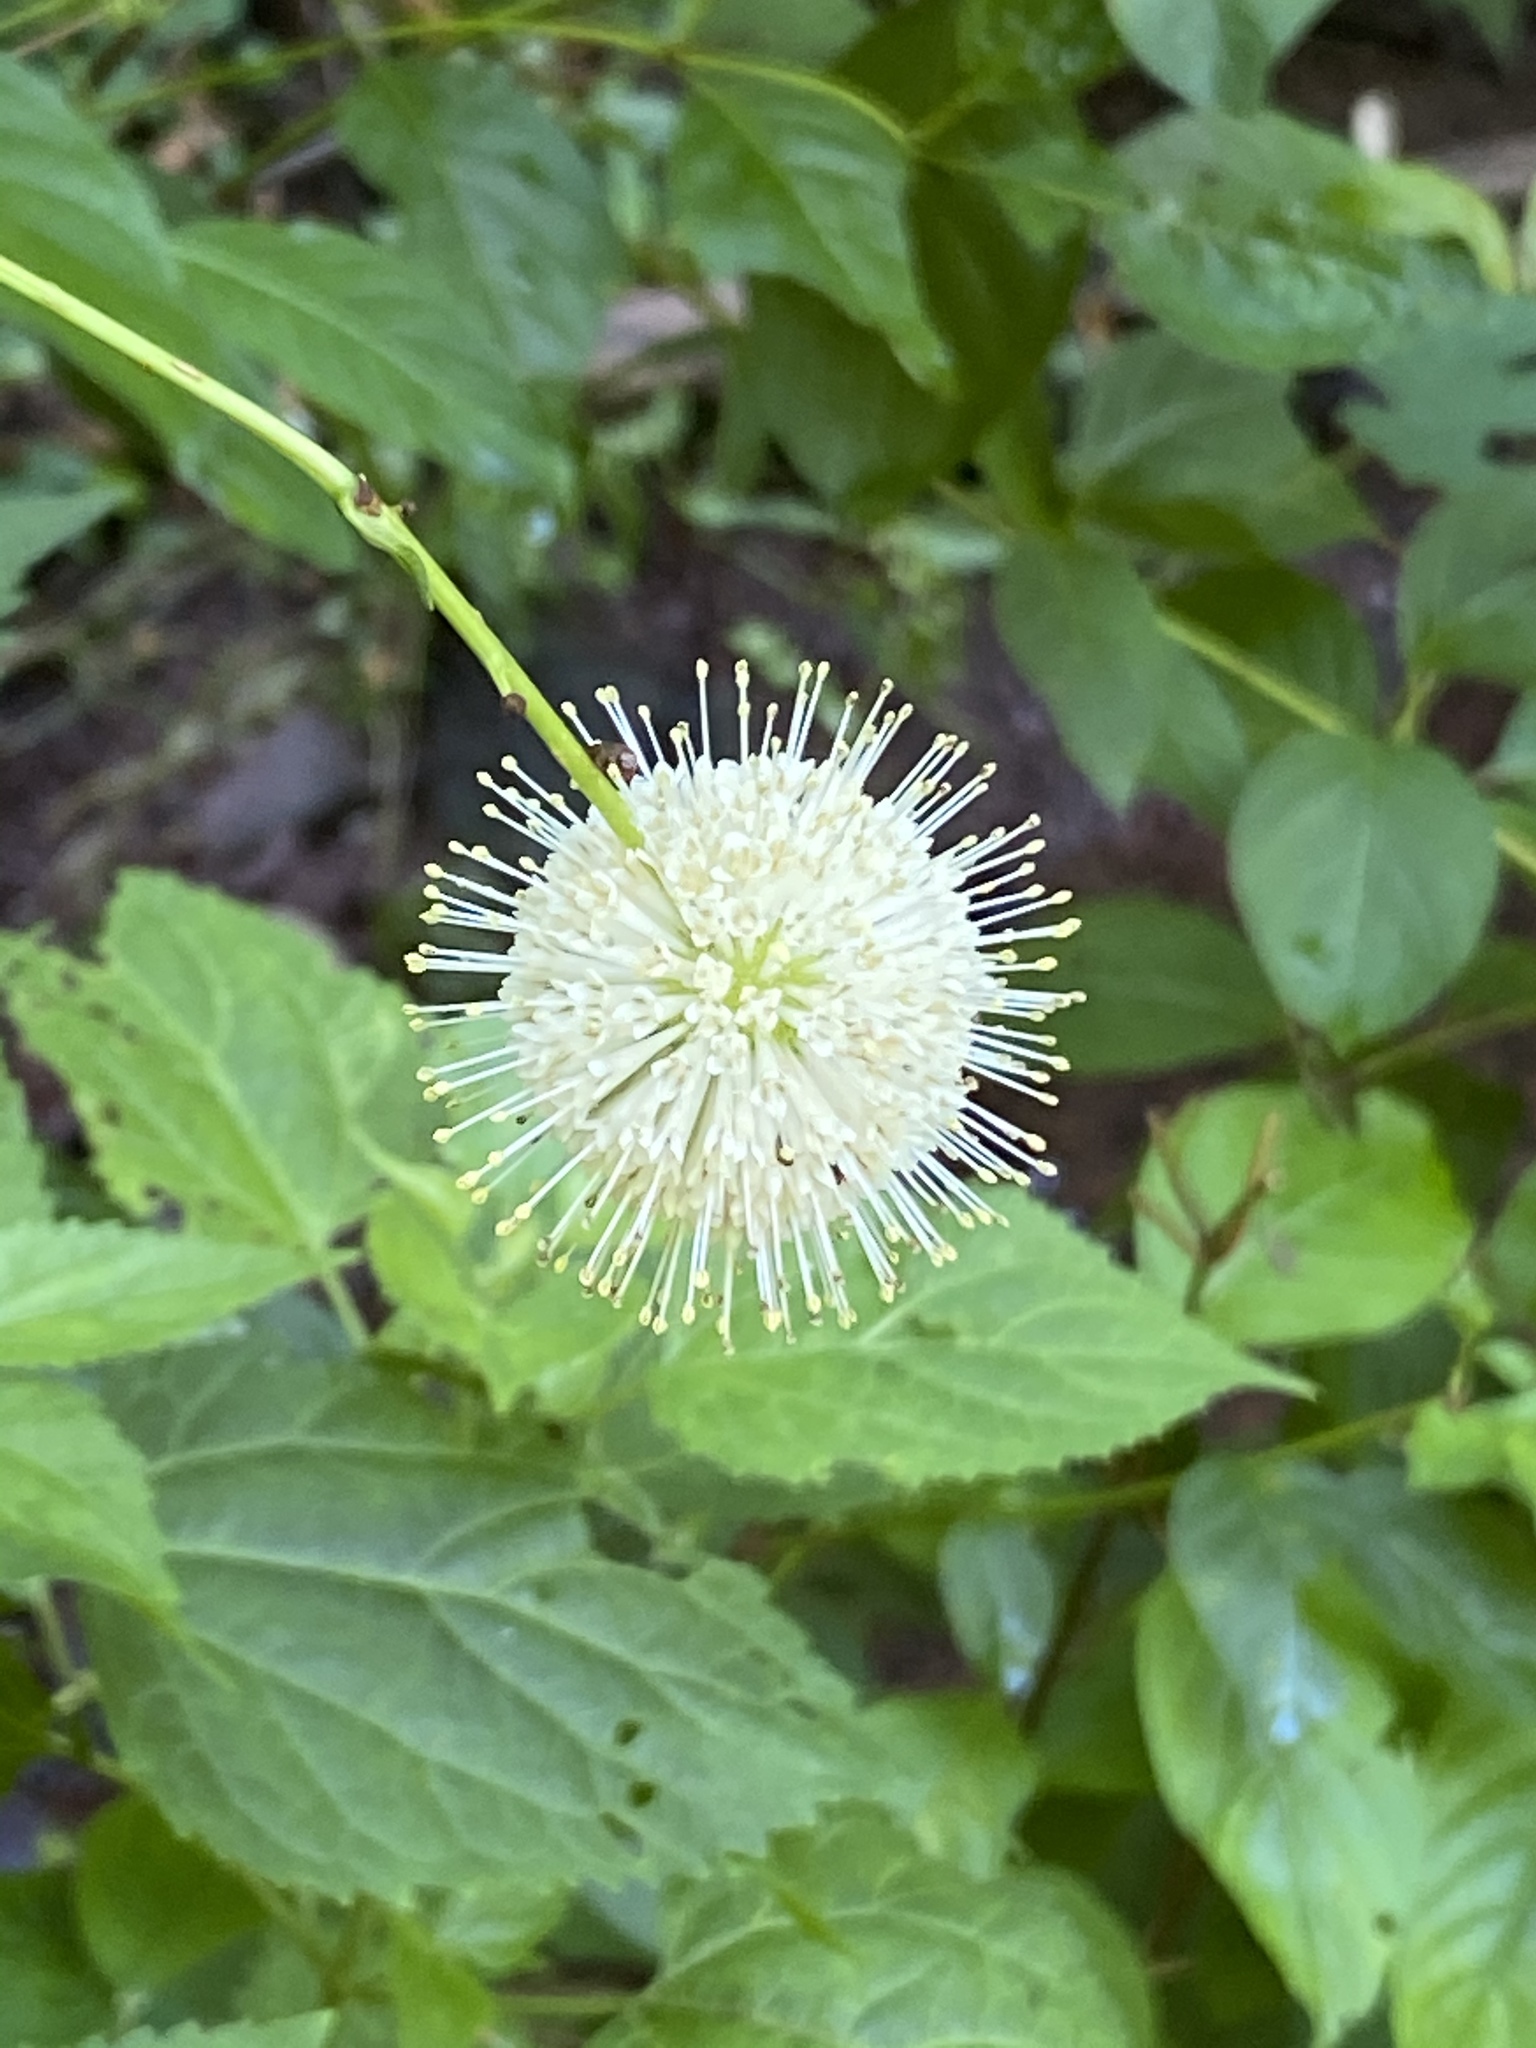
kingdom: Plantae
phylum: Tracheophyta
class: Magnoliopsida
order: Gentianales
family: Rubiaceae
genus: Cephalanthus
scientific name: Cephalanthus occidentalis
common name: Button-willow
